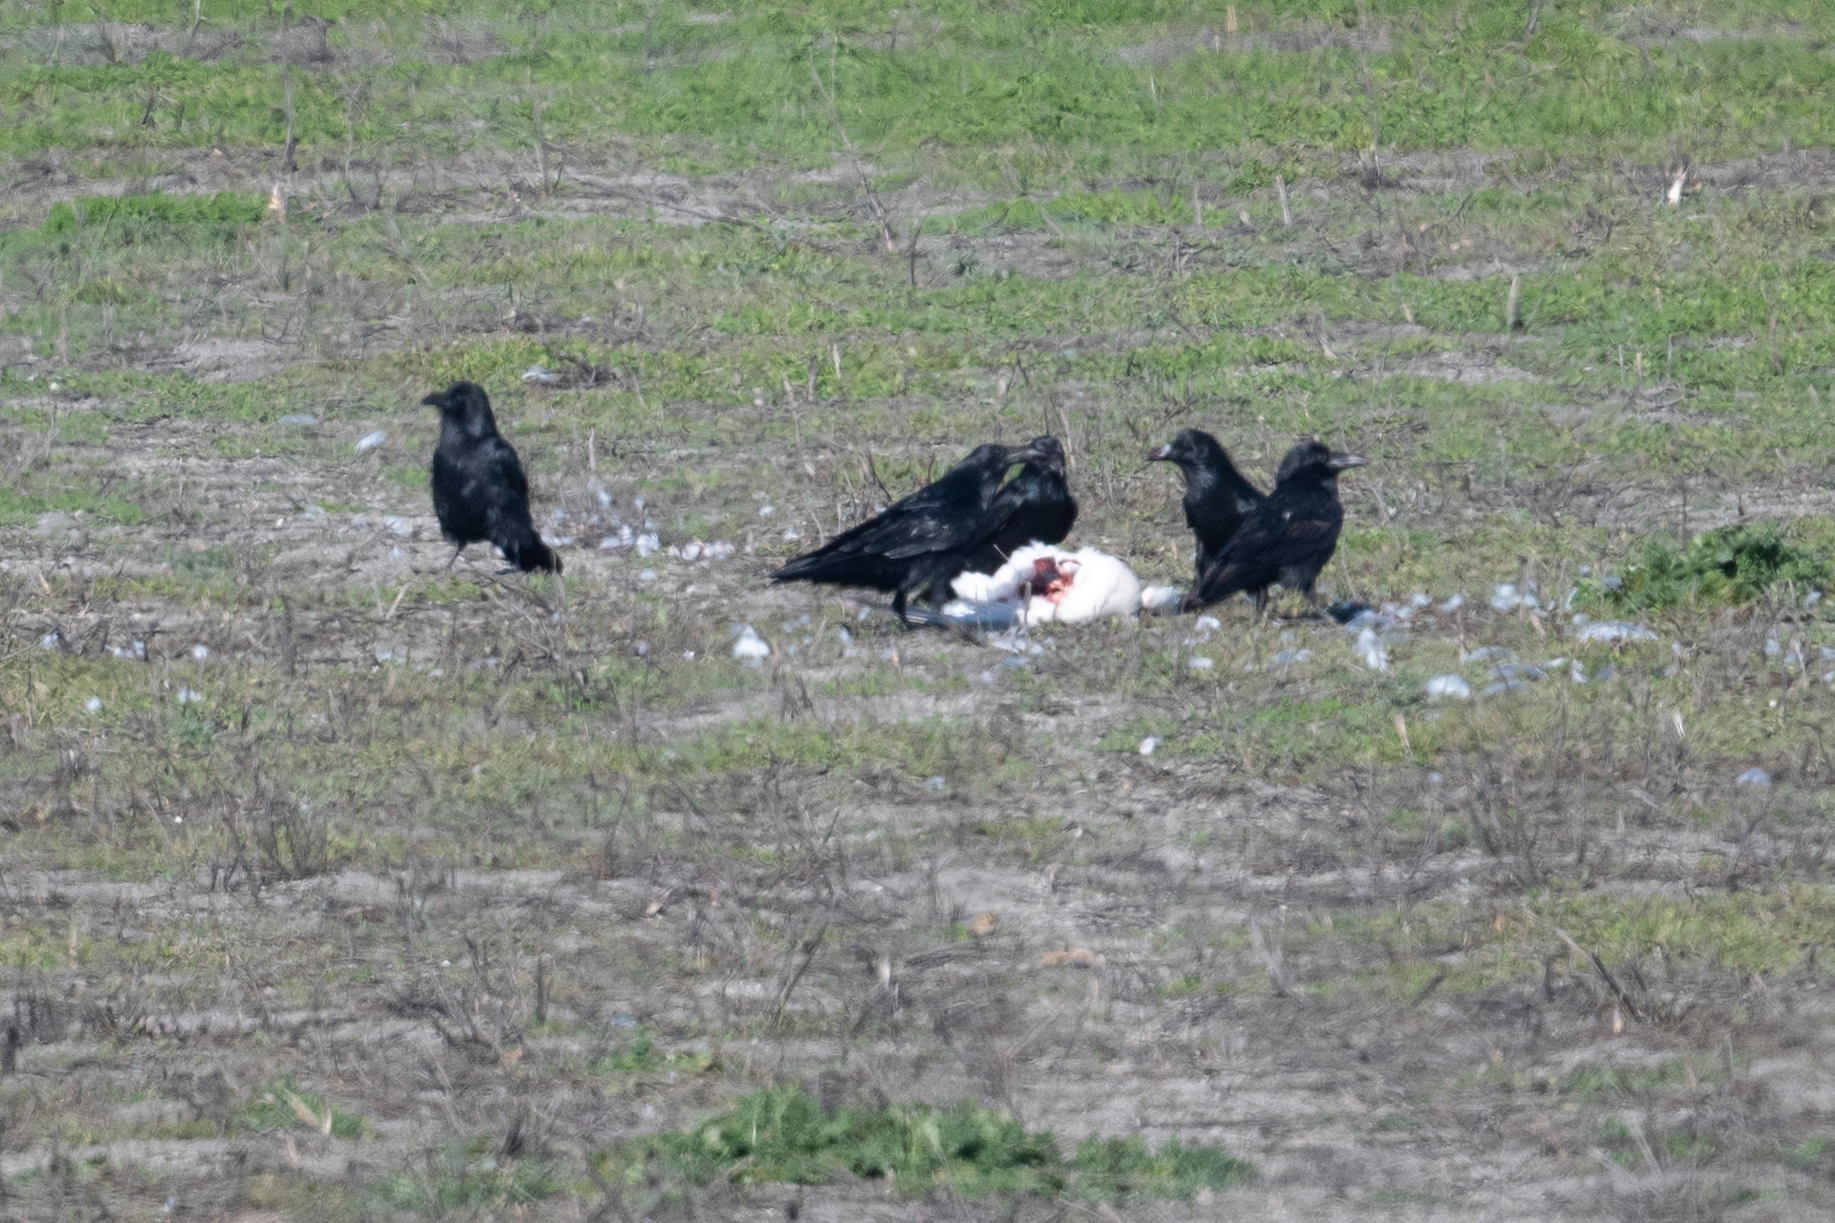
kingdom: Animalia
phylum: Chordata
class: Aves
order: Passeriformes
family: Corvidae
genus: Corvus
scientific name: Corvus corax
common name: Common raven
